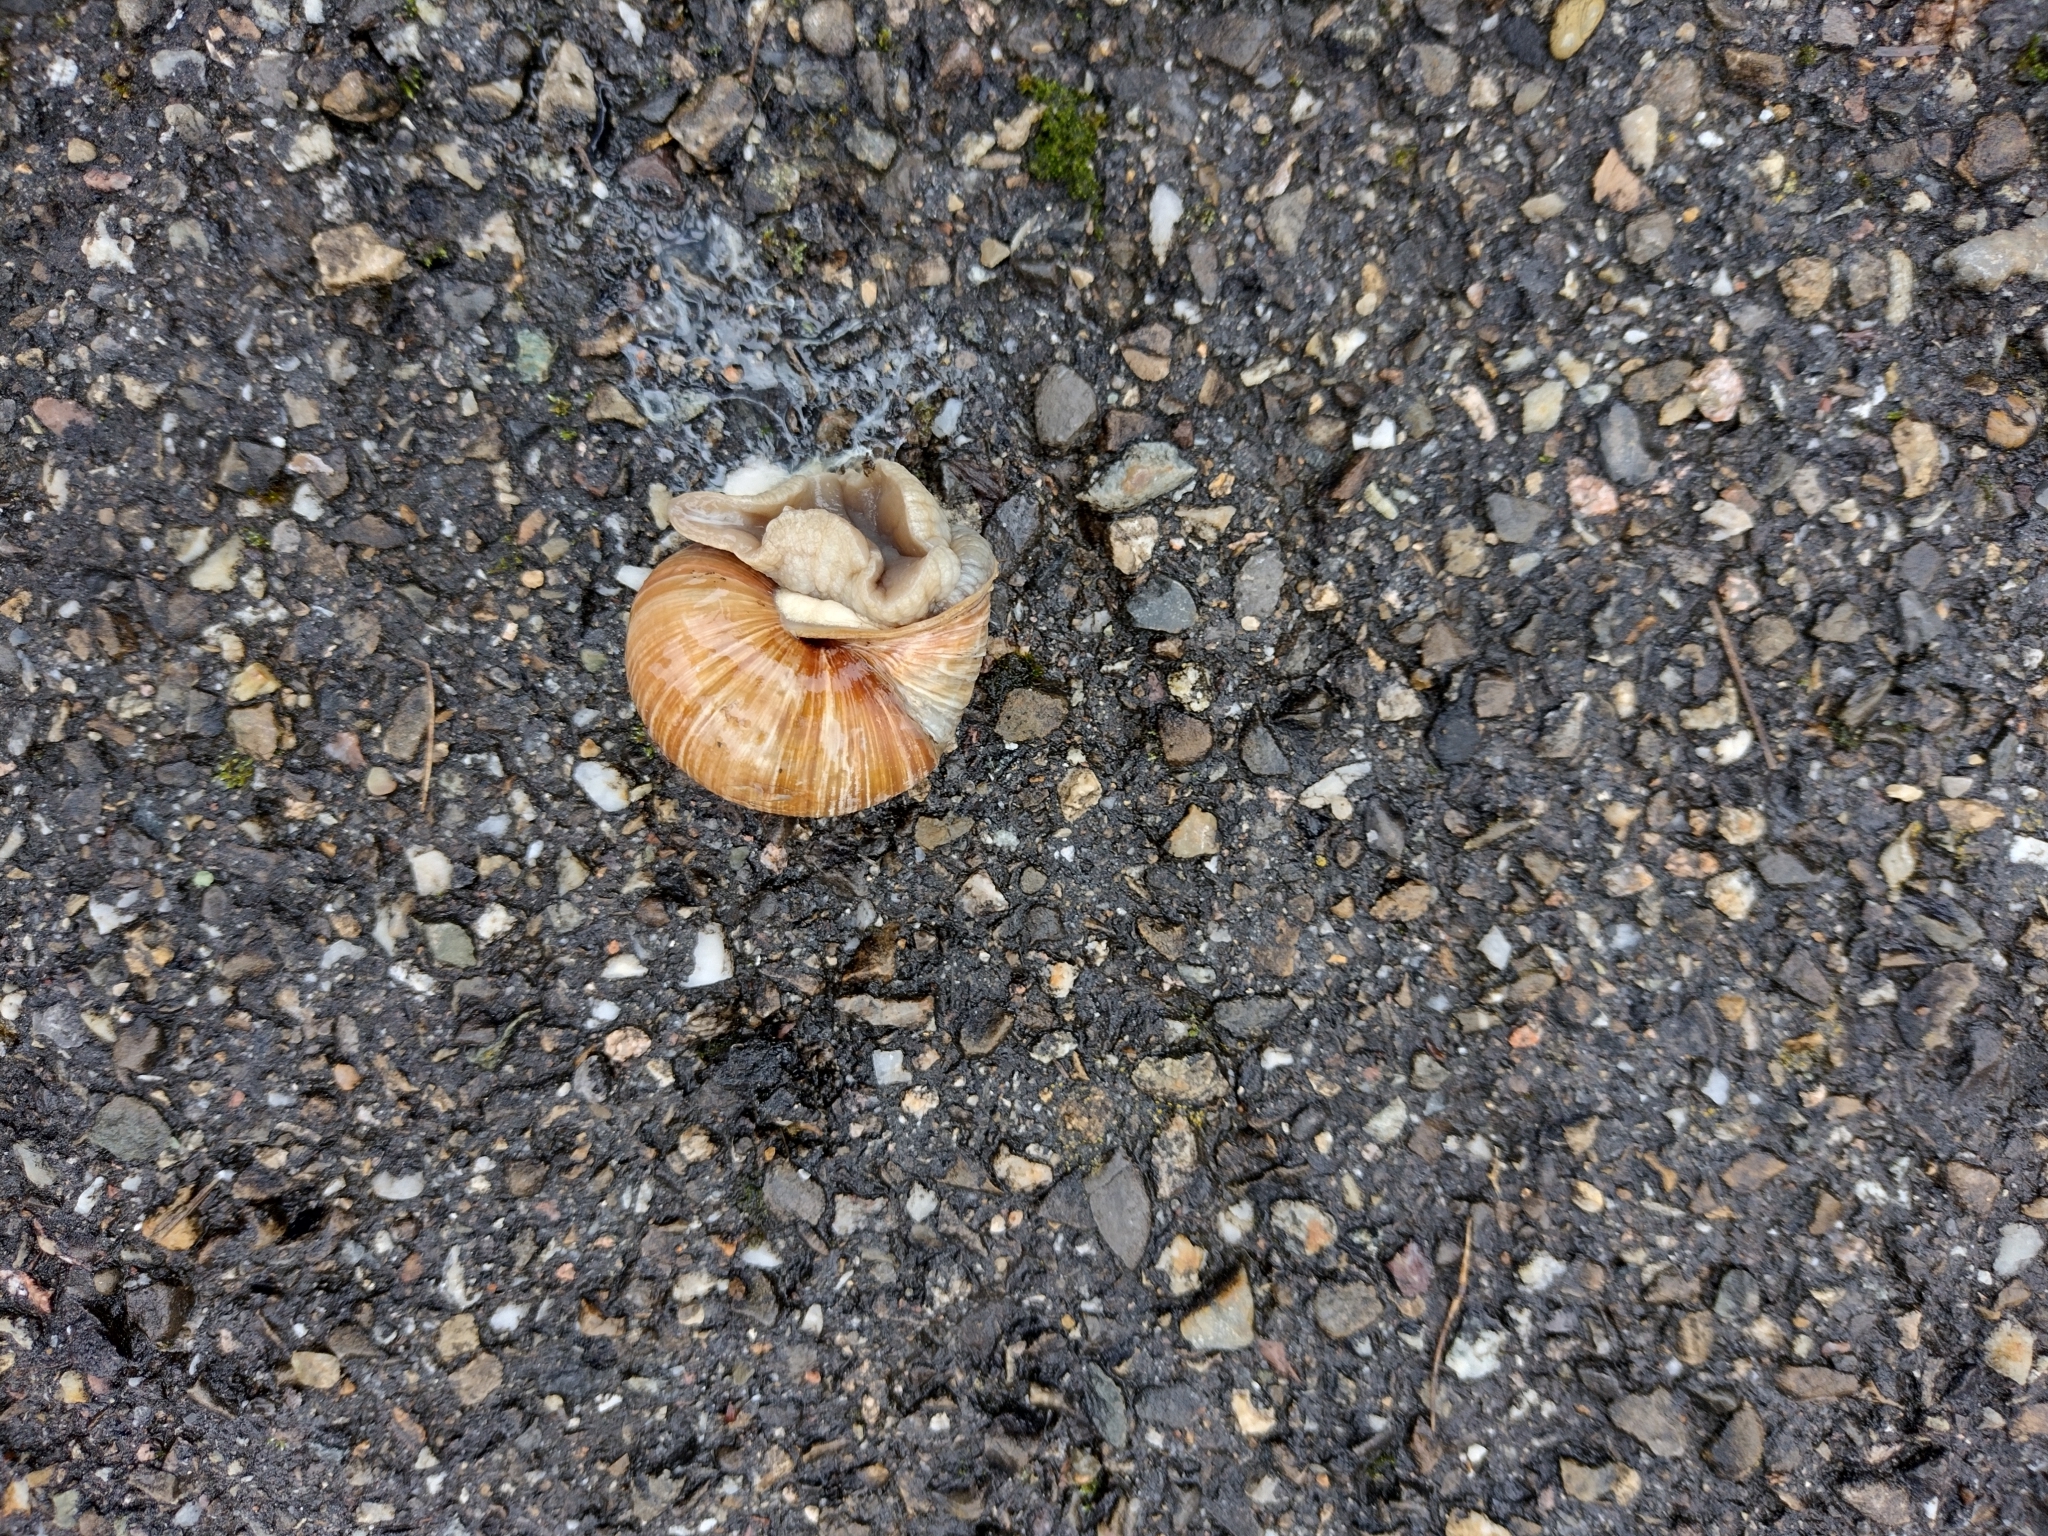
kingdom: Animalia
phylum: Mollusca
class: Gastropoda
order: Stylommatophora
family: Helicidae
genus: Helix
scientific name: Helix pomatia
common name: Roman snail
